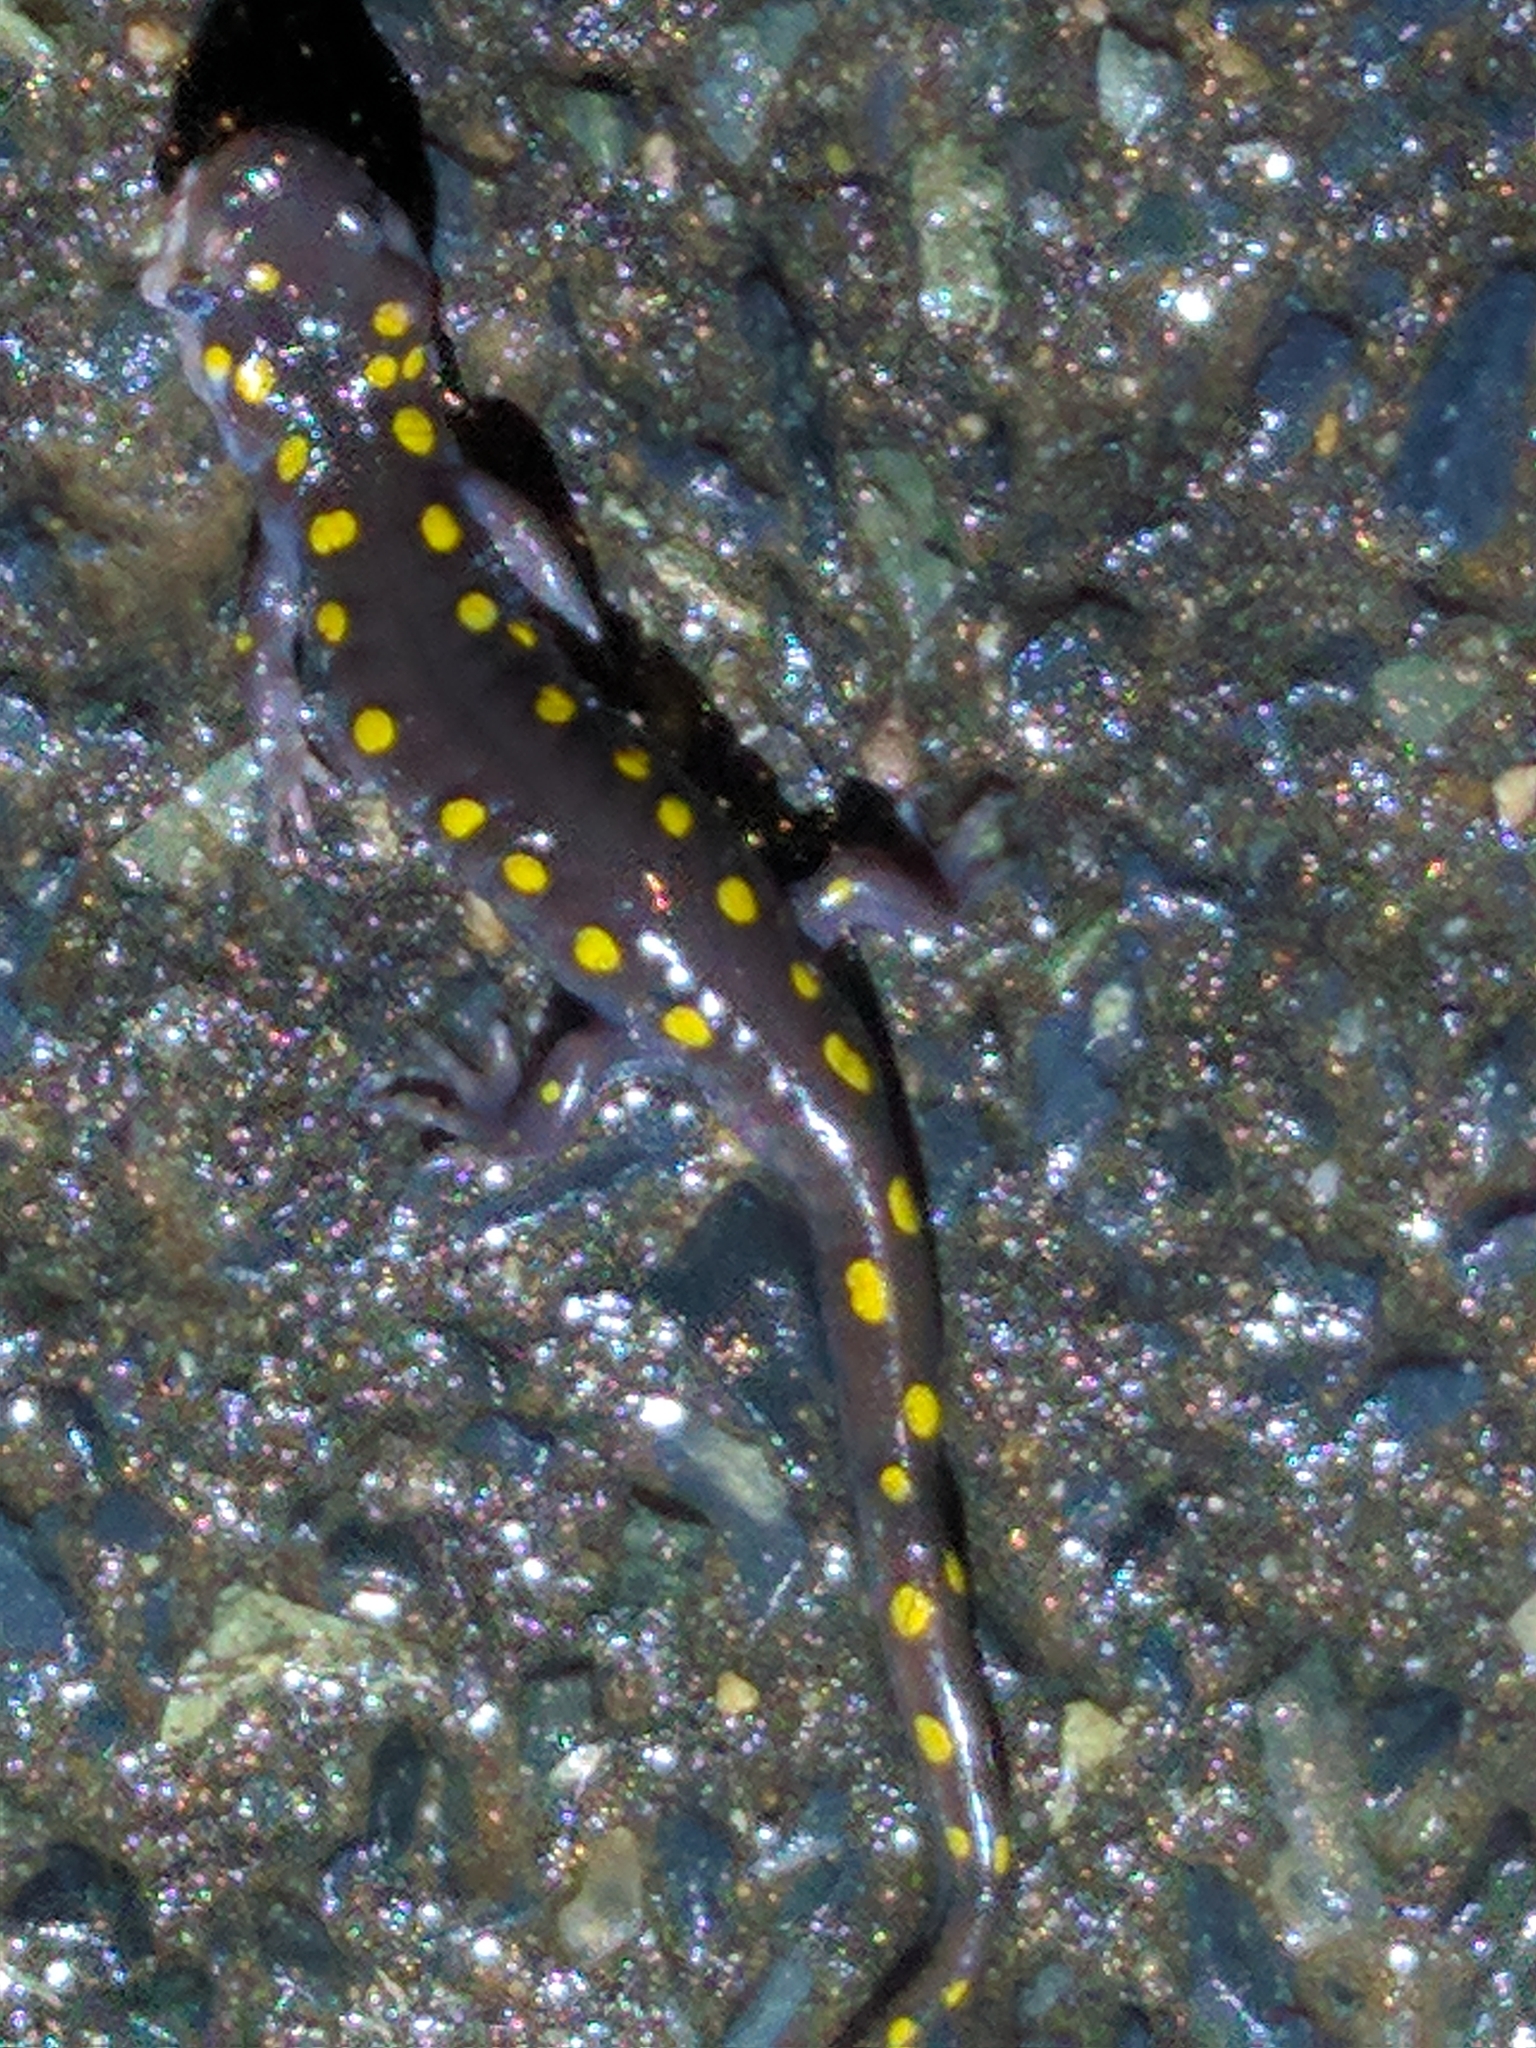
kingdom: Animalia
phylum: Chordata
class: Amphibia
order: Caudata
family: Ambystomatidae
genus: Ambystoma
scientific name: Ambystoma maculatum
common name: Spotted salamander
